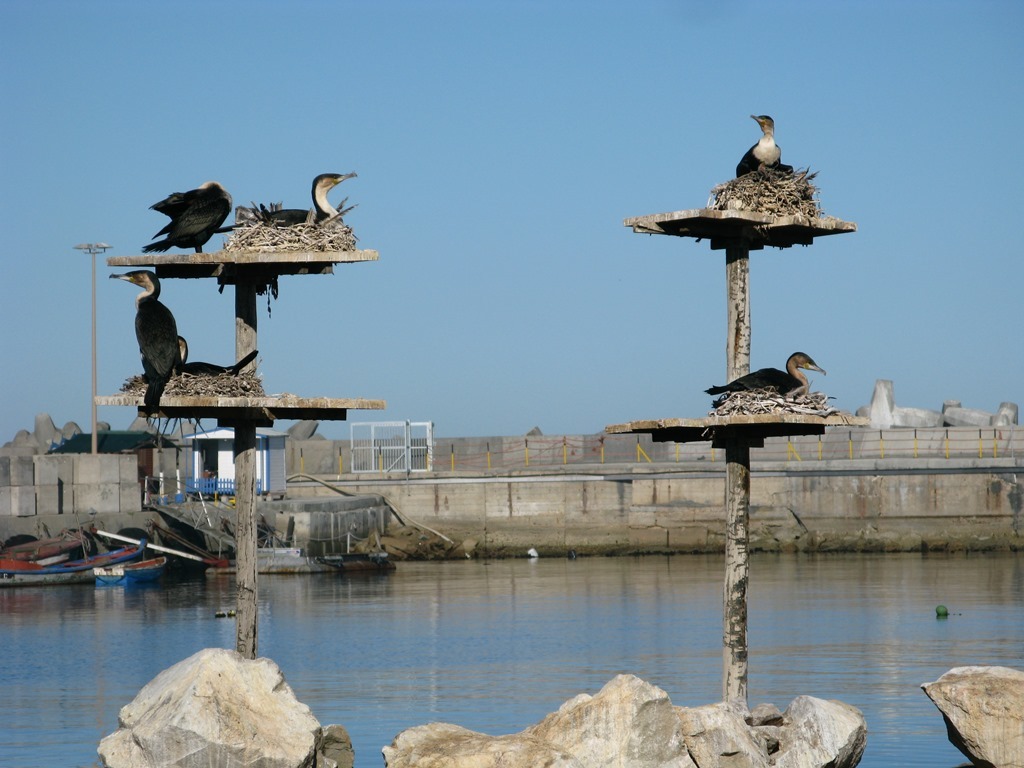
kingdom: Animalia
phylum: Chordata
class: Aves
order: Suliformes
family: Phalacrocoracidae
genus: Phalacrocorax
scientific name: Phalacrocorax carbo
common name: Great cormorant
